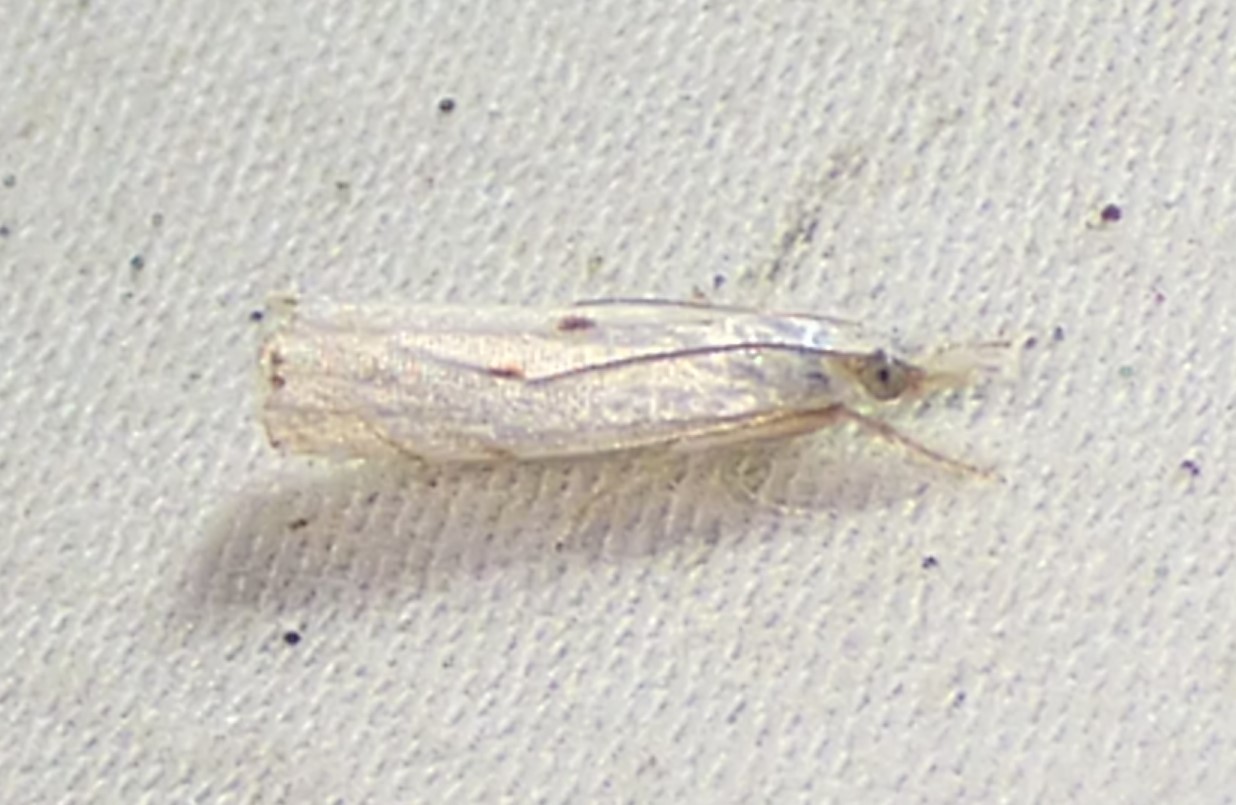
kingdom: Animalia
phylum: Arthropoda
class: Insecta
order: Lepidoptera
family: Crambidae
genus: Microcrambus
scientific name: Microcrambus biguttellus
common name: Gold-stripe grass-veneer moth
